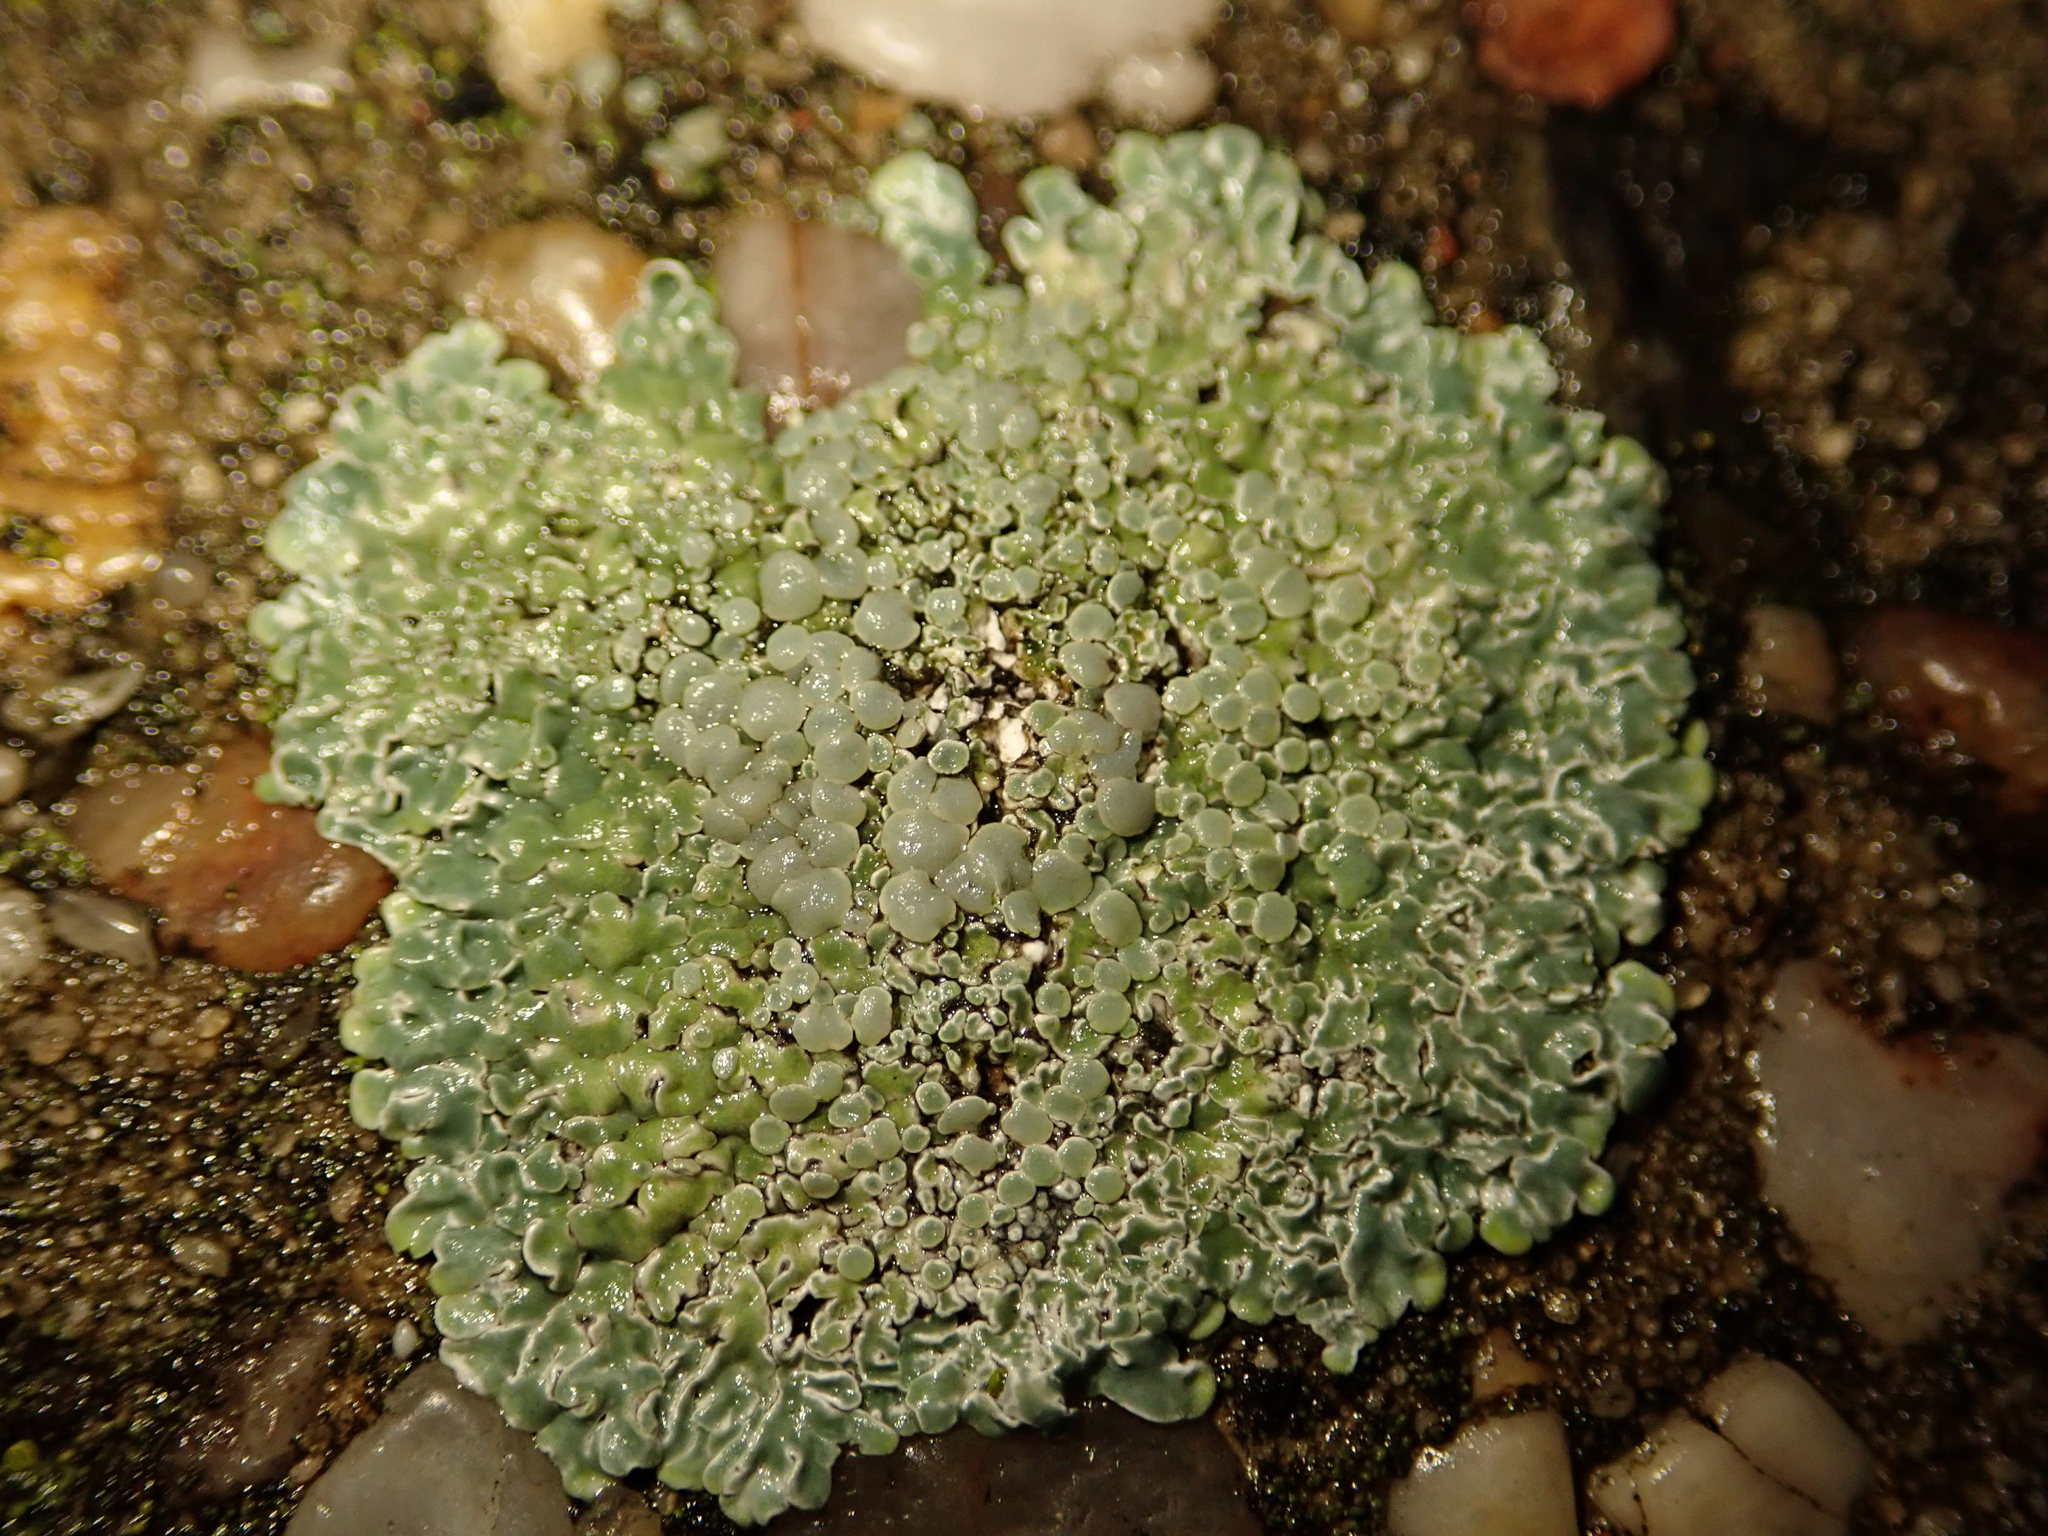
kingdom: Fungi
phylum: Ascomycota
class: Lecanoromycetes
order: Lecanorales
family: Lecanoraceae
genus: Protoparmeliopsis
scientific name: Protoparmeliopsis muralis
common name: Stonewall rim lichen
